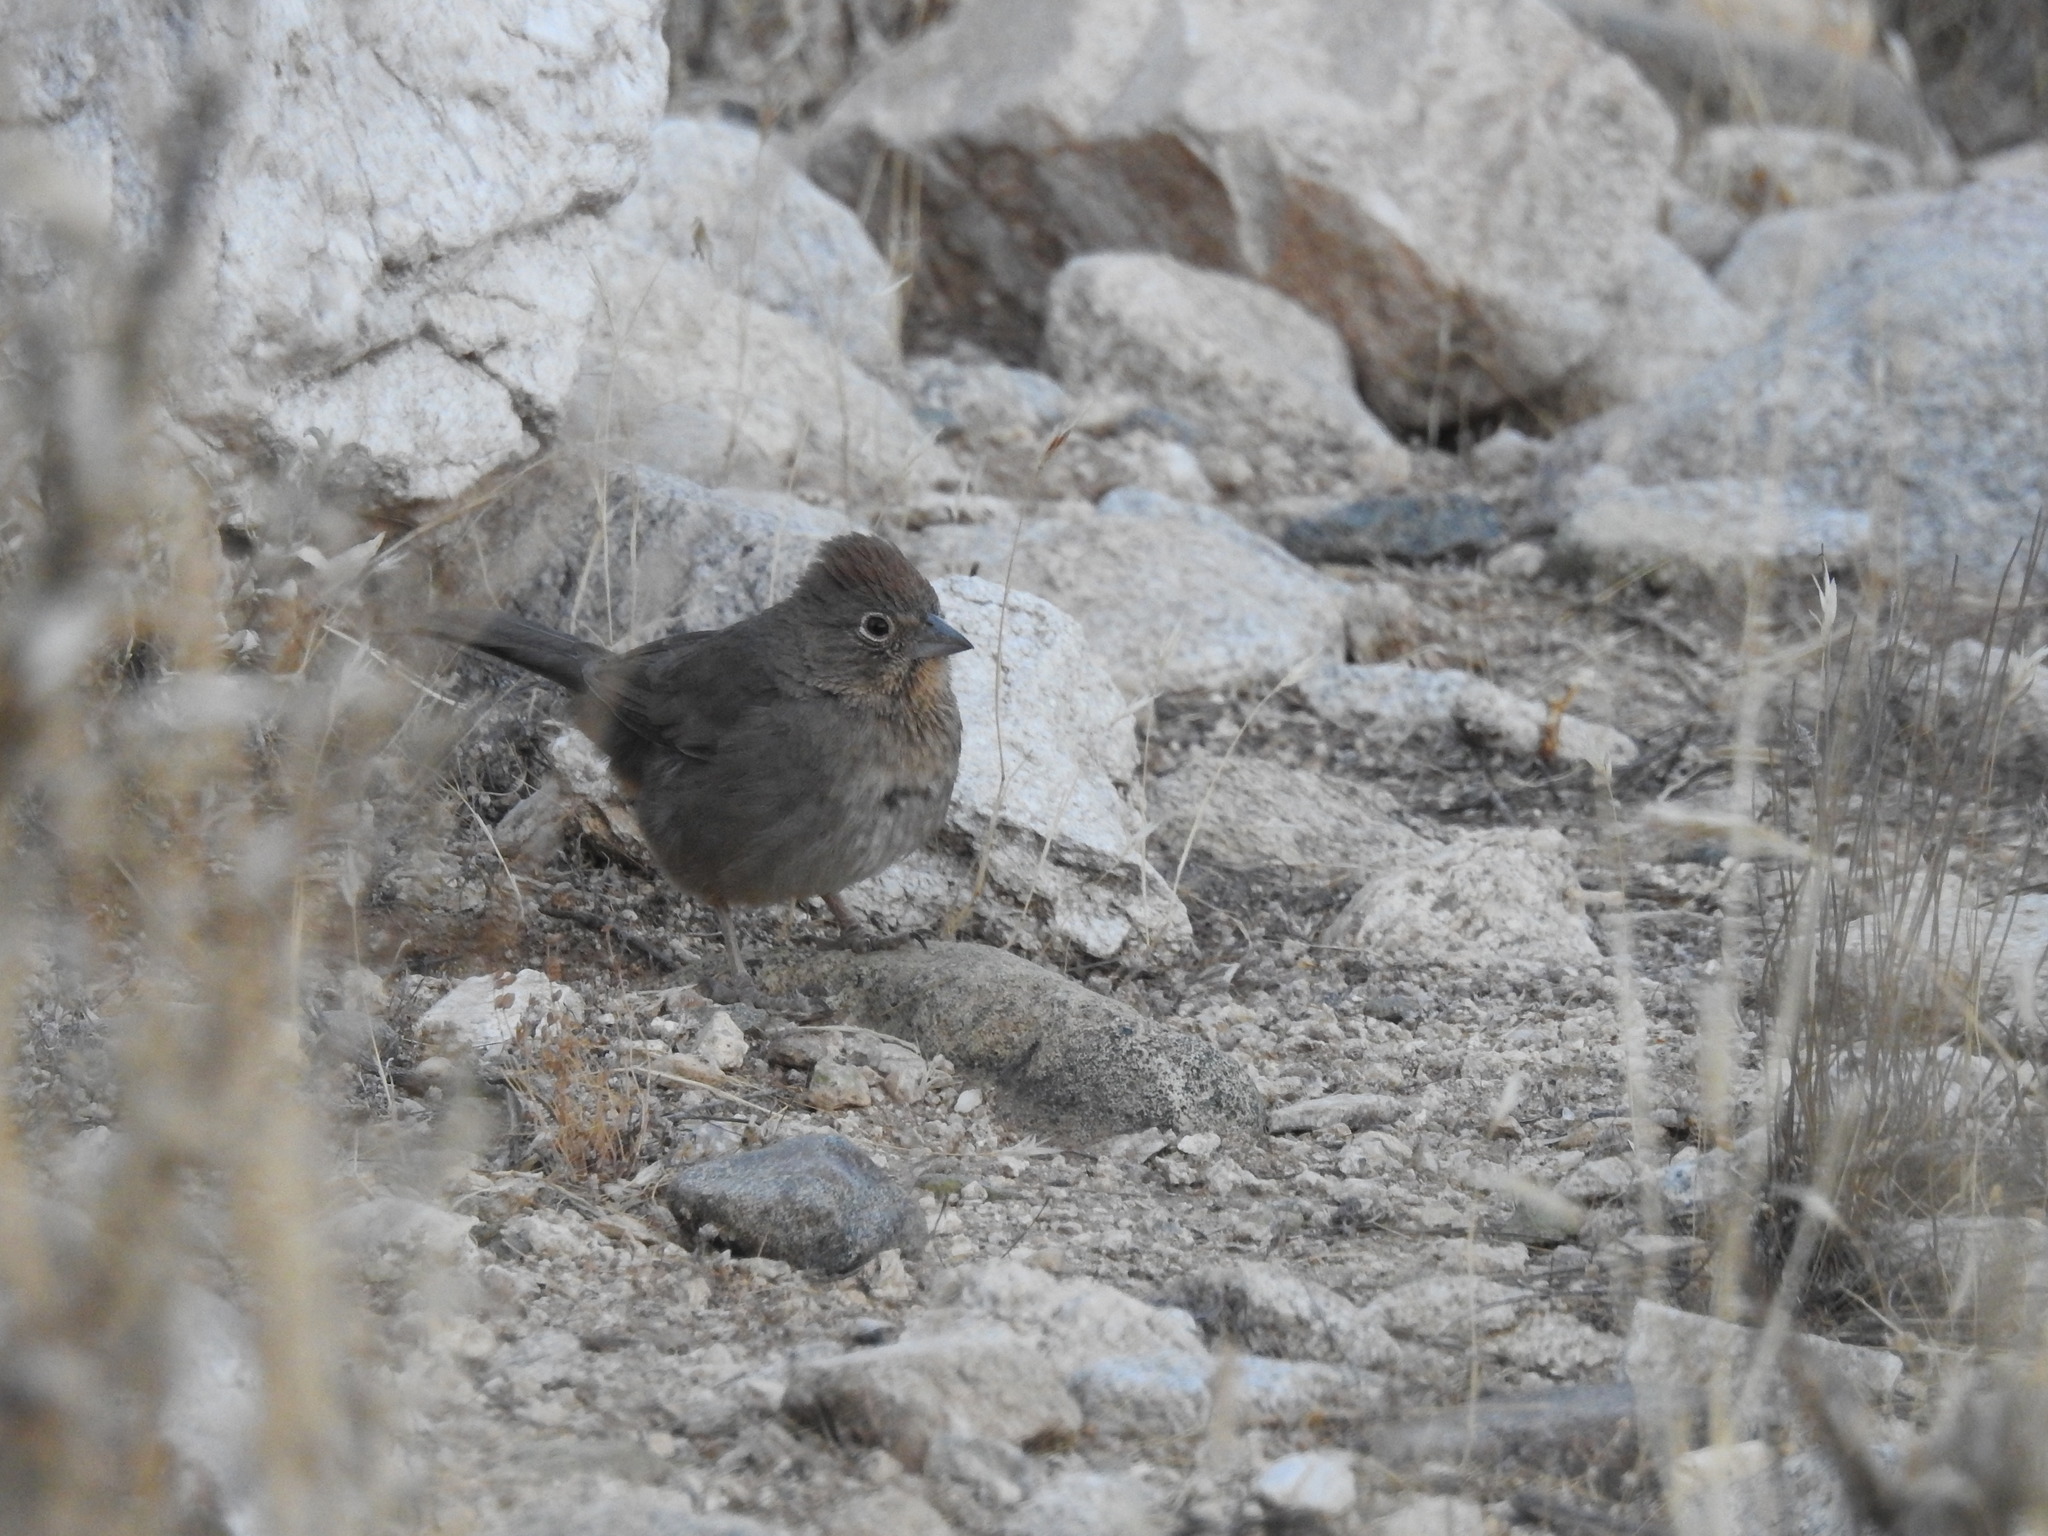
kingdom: Animalia
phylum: Chordata
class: Aves
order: Passeriformes
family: Passerellidae
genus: Melozone
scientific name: Melozone fusca
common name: Canyon towhee
